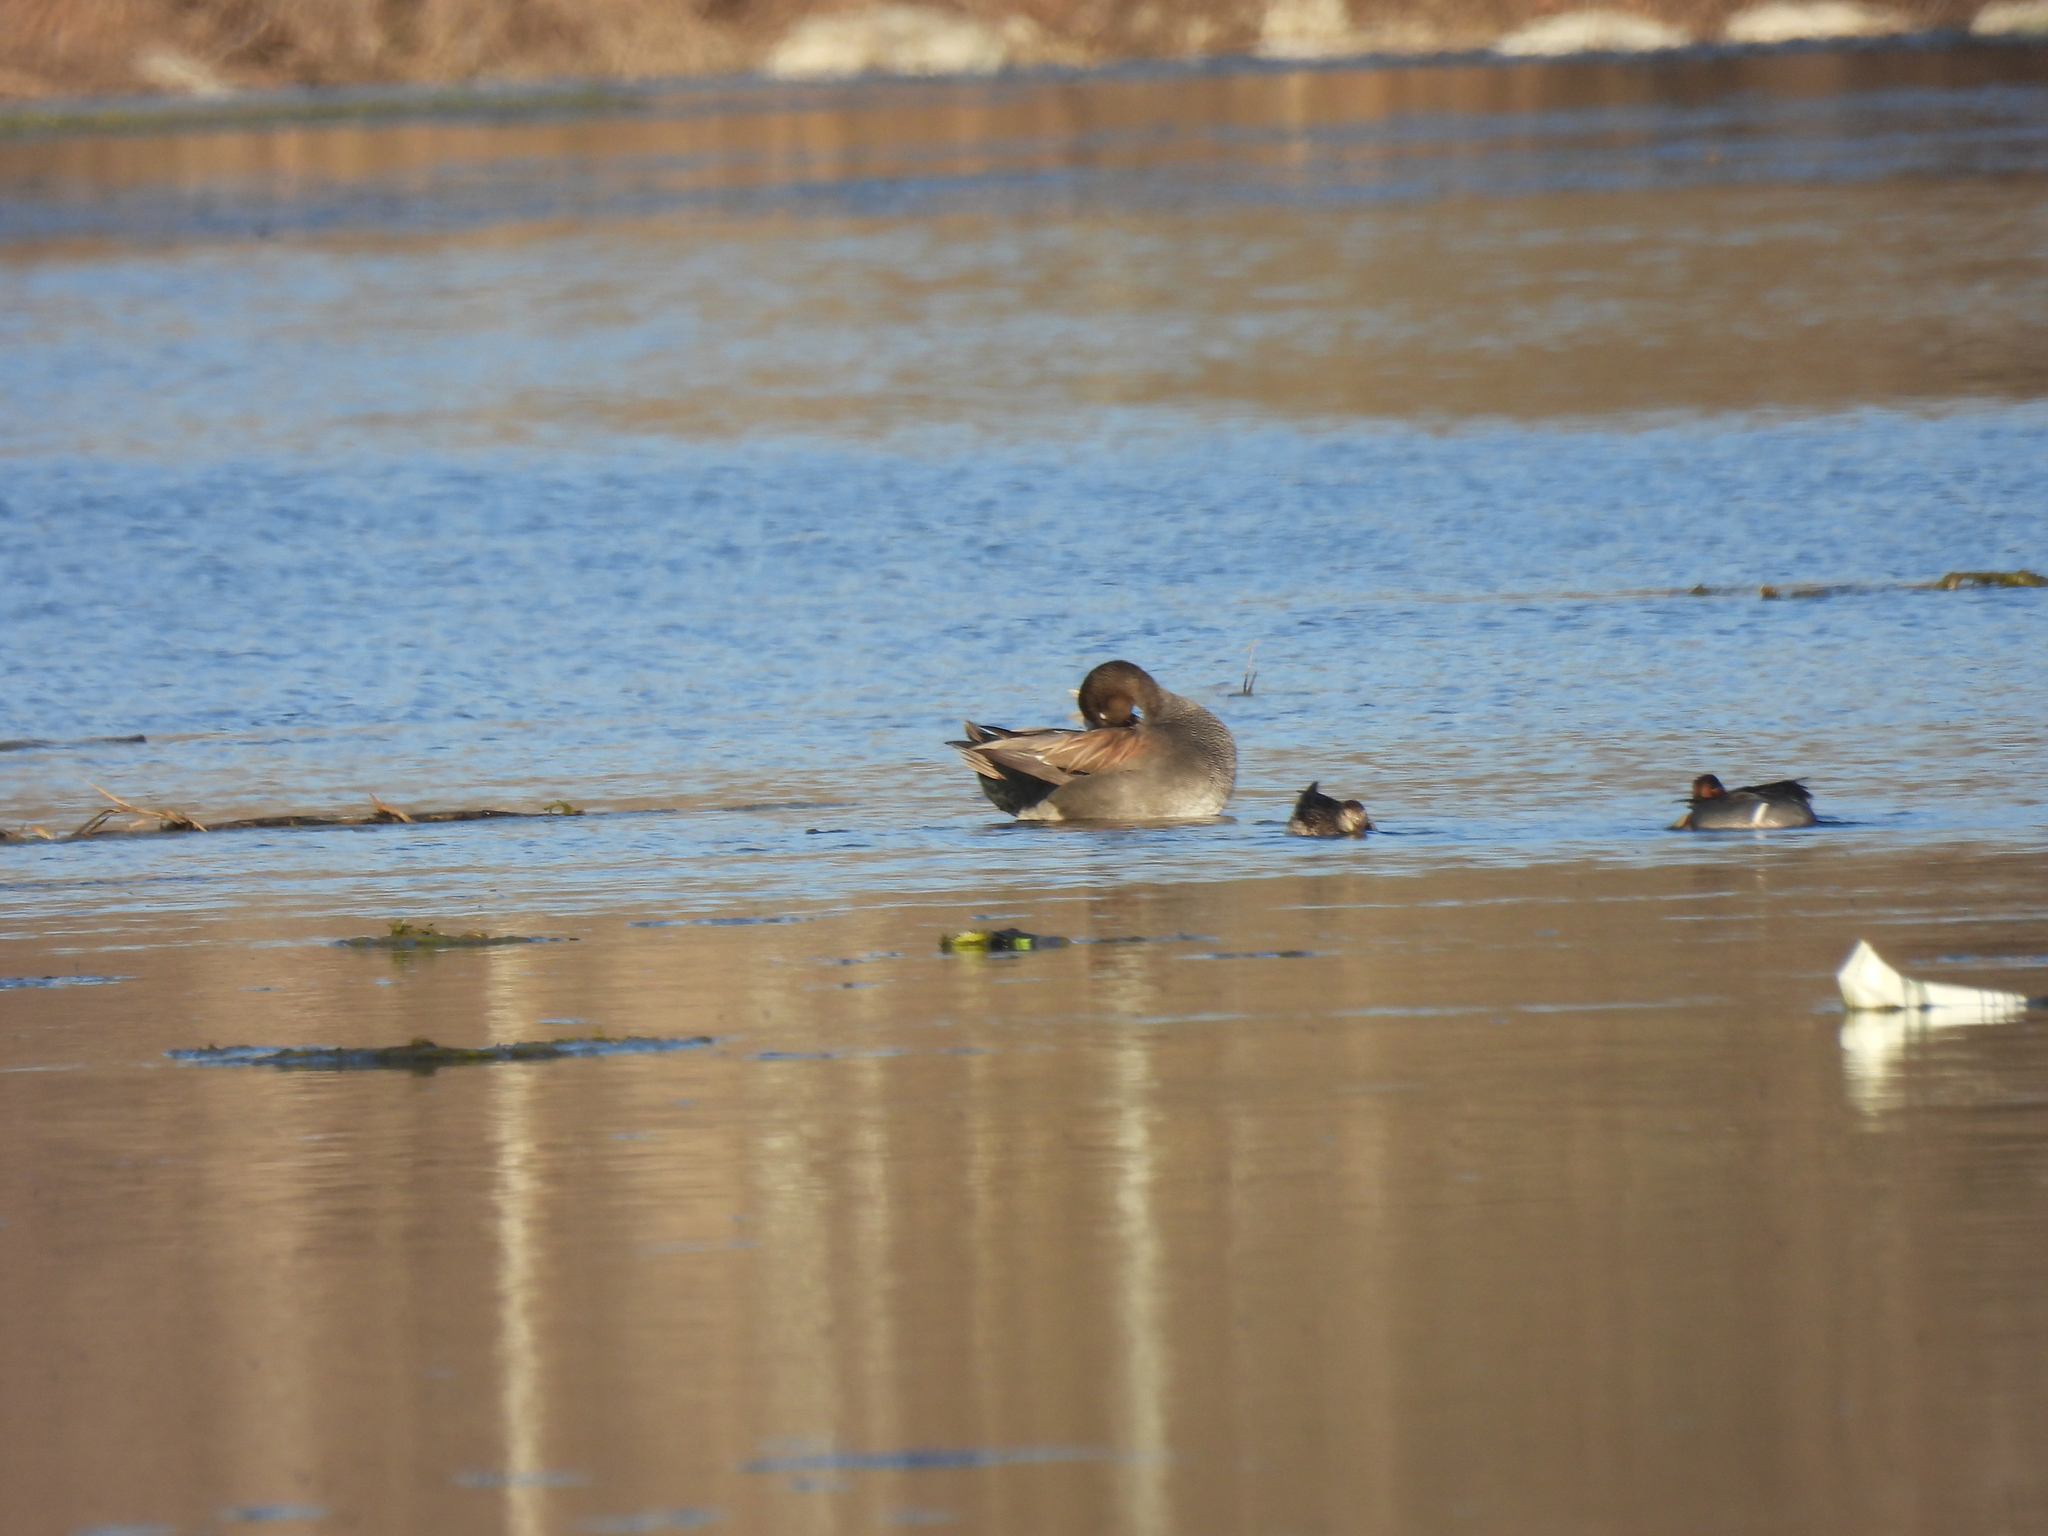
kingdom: Animalia
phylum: Chordata
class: Aves
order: Anseriformes
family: Anatidae
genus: Mareca
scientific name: Mareca strepera
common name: Gadwall
